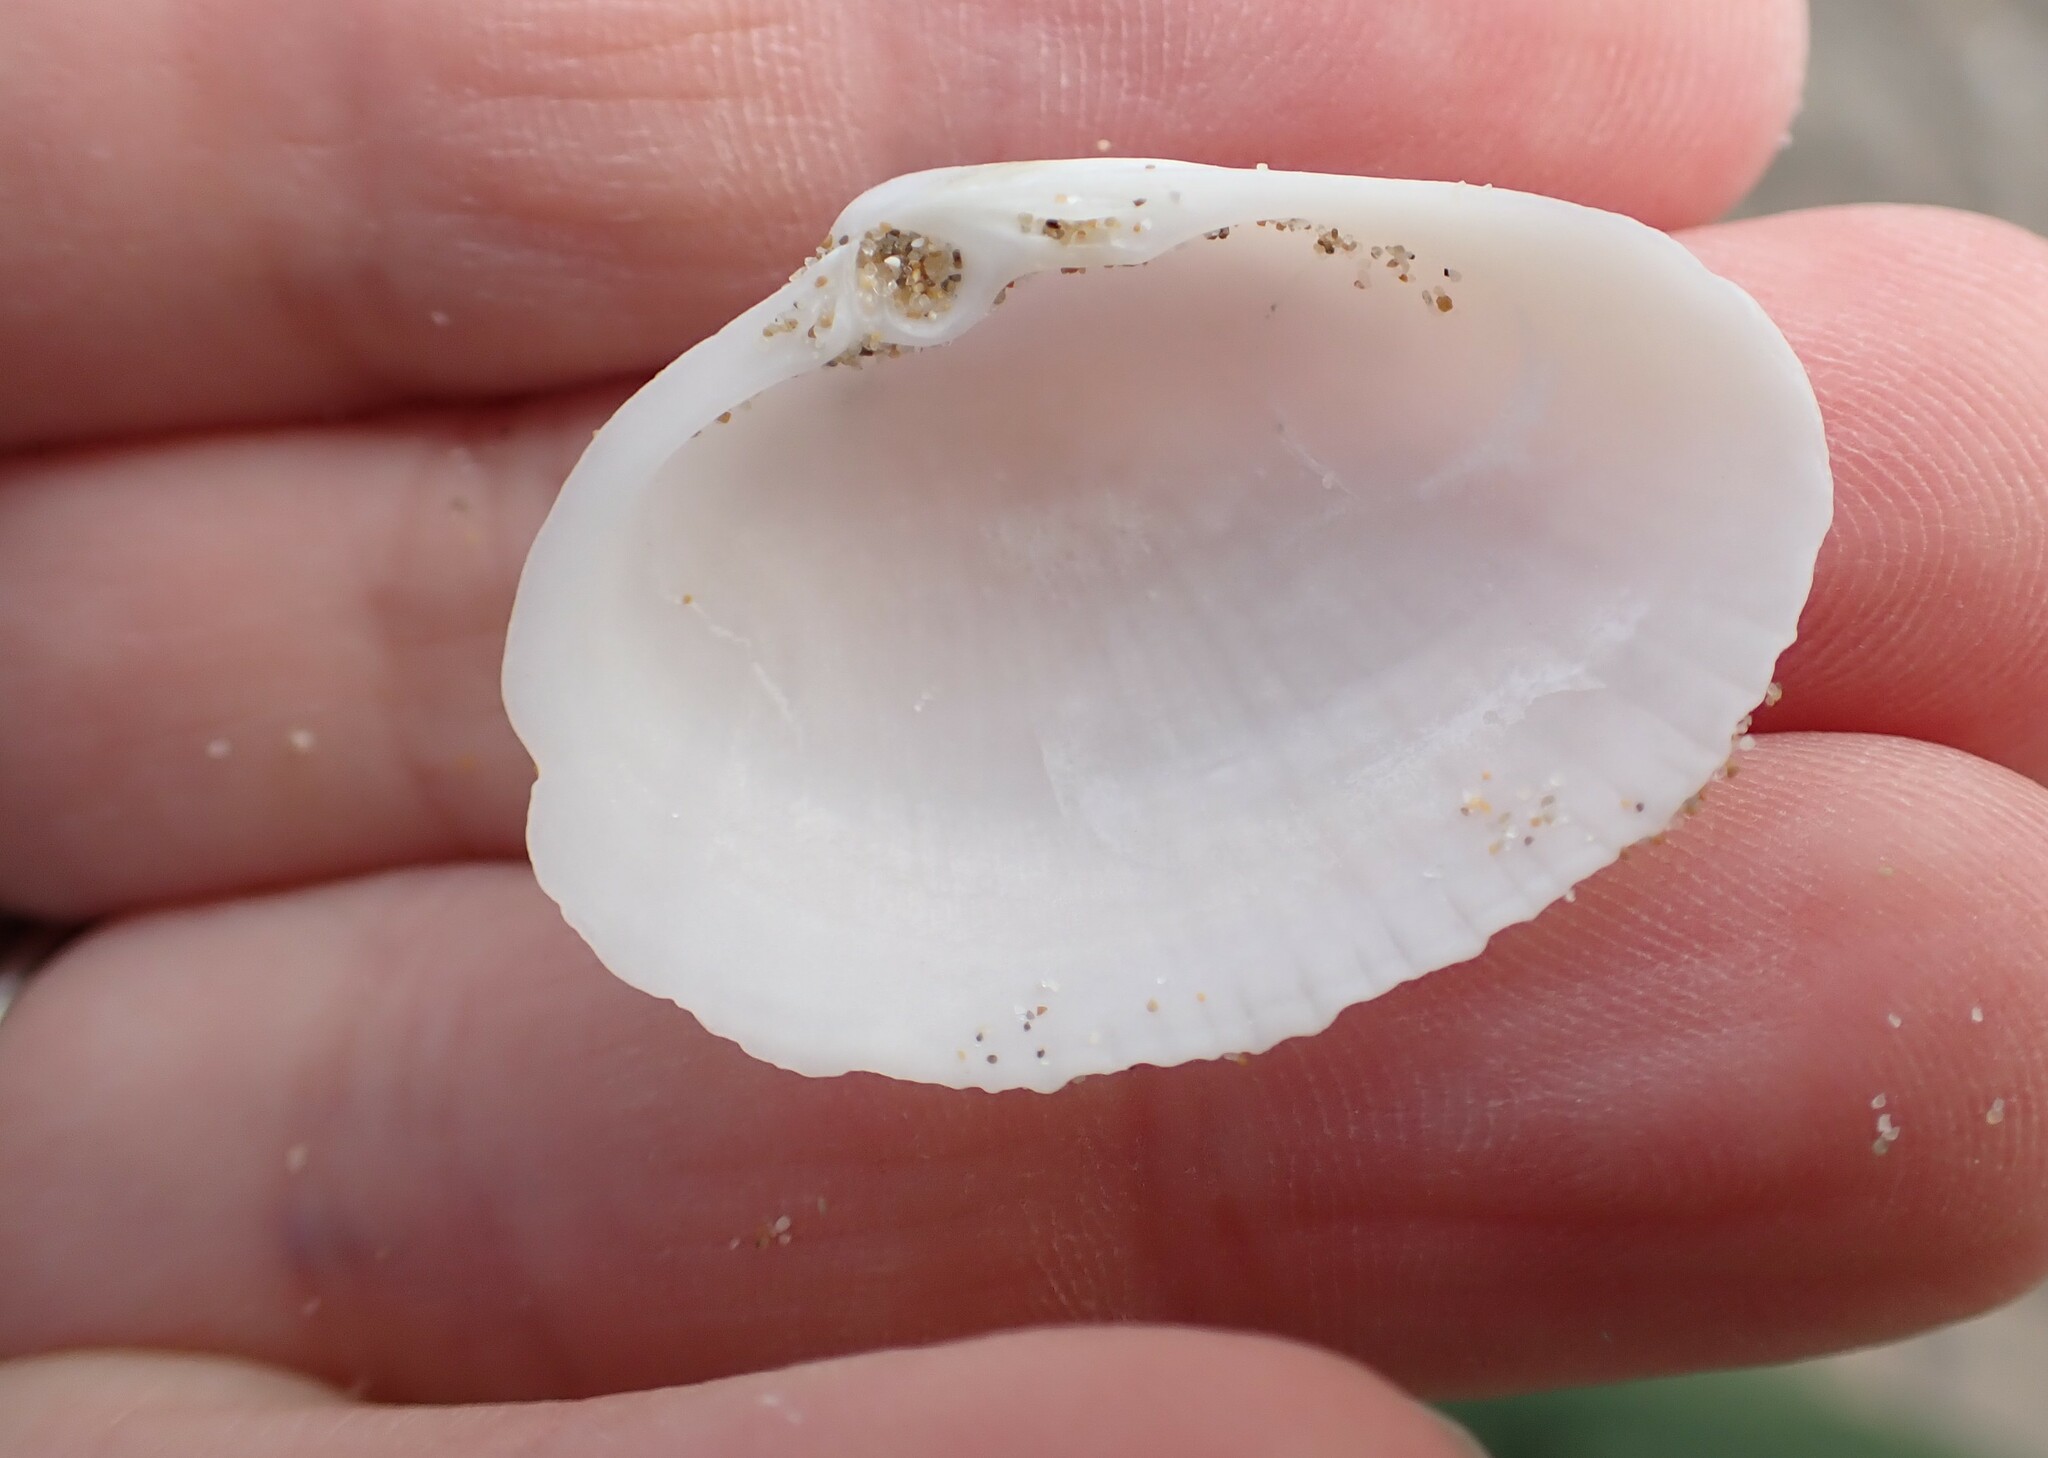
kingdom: Animalia
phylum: Mollusca
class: Bivalvia
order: Venerida
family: Mactridae
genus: Eastonia
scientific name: Eastonia rugosa
